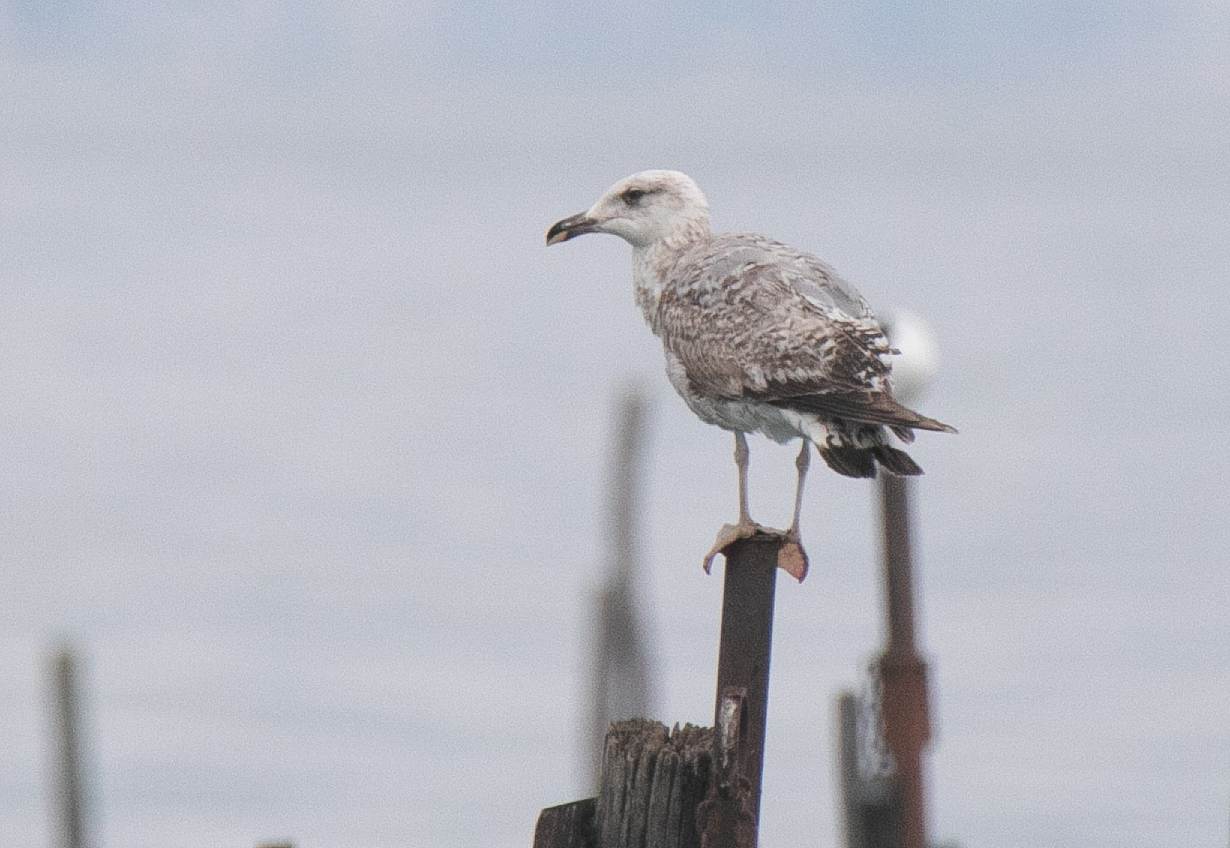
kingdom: Animalia
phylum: Chordata
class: Aves
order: Charadriiformes
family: Laridae
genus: Larus
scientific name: Larus michahellis
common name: Yellow-legged gull
